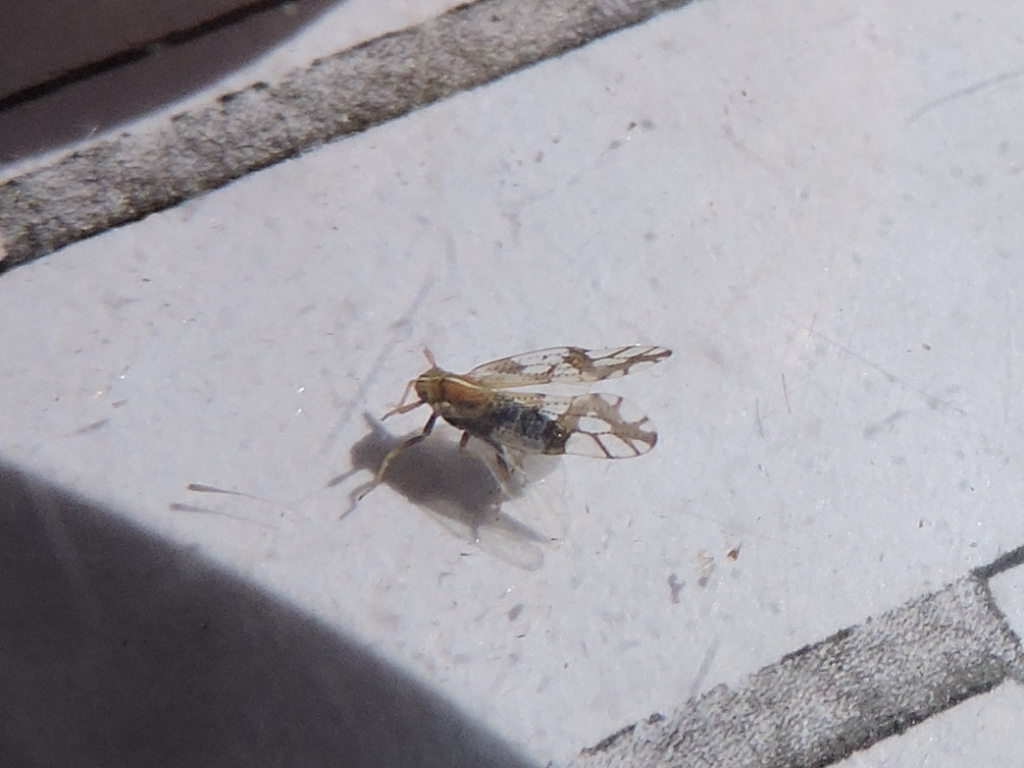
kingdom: Animalia
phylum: Arthropoda
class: Insecta
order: Hemiptera
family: Delphacidae
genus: Liburniella
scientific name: Liburniella ornata
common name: Ornate planthopper
